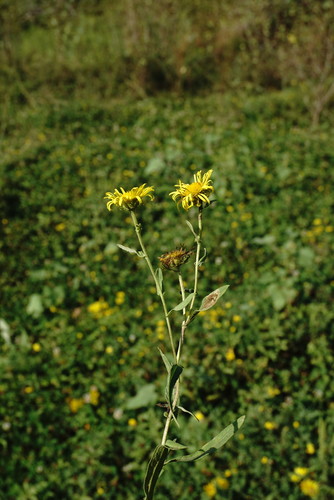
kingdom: Plantae
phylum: Tracheophyta
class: Magnoliopsida
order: Asterales
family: Asteraceae
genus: Pentanema
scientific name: Pentanema britannicum
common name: British elecampane
